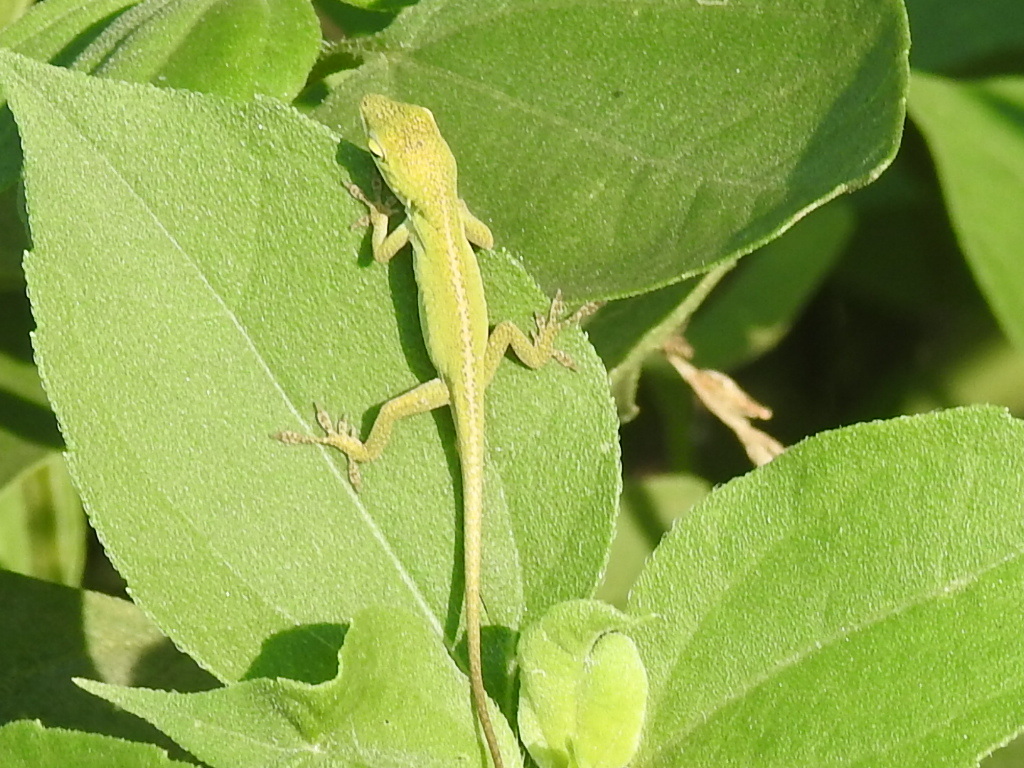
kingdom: Animalia
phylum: Chordata
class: Squamata
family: Dactyloidae
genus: Anolis
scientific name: Anolis carolinensis
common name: Green anole
